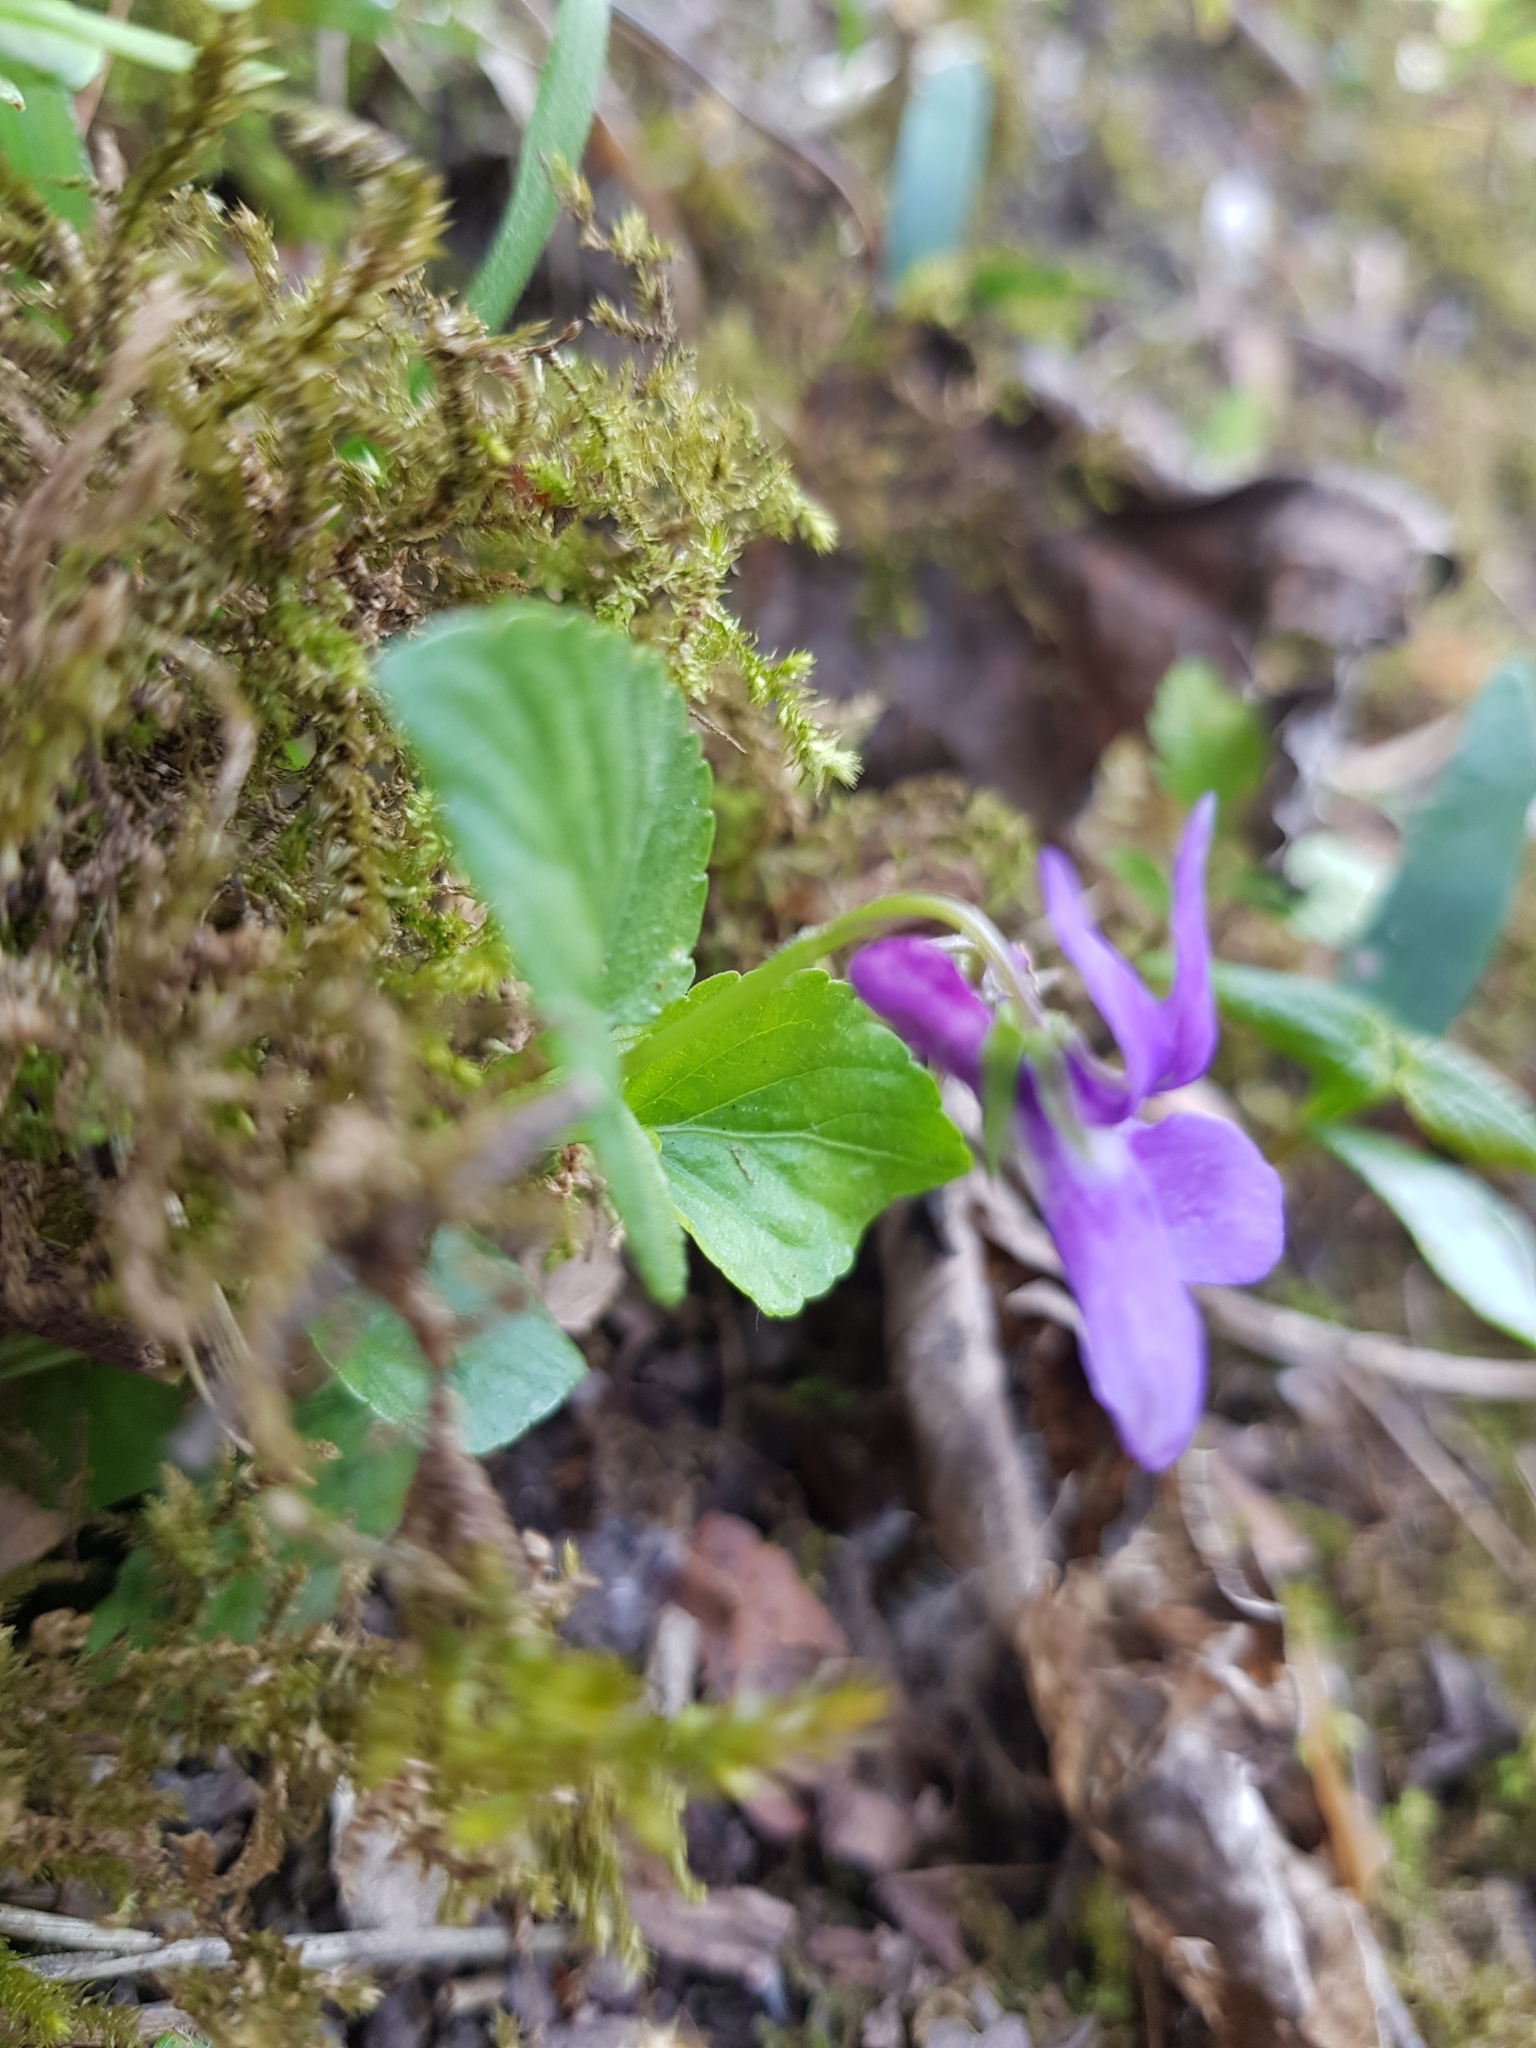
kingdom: Plantae
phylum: Tracheophyta
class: Magnoliopsida
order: Malpighiales
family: Violaceae
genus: Viola
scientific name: Viola reichenbachiana
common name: Early dog-violet
